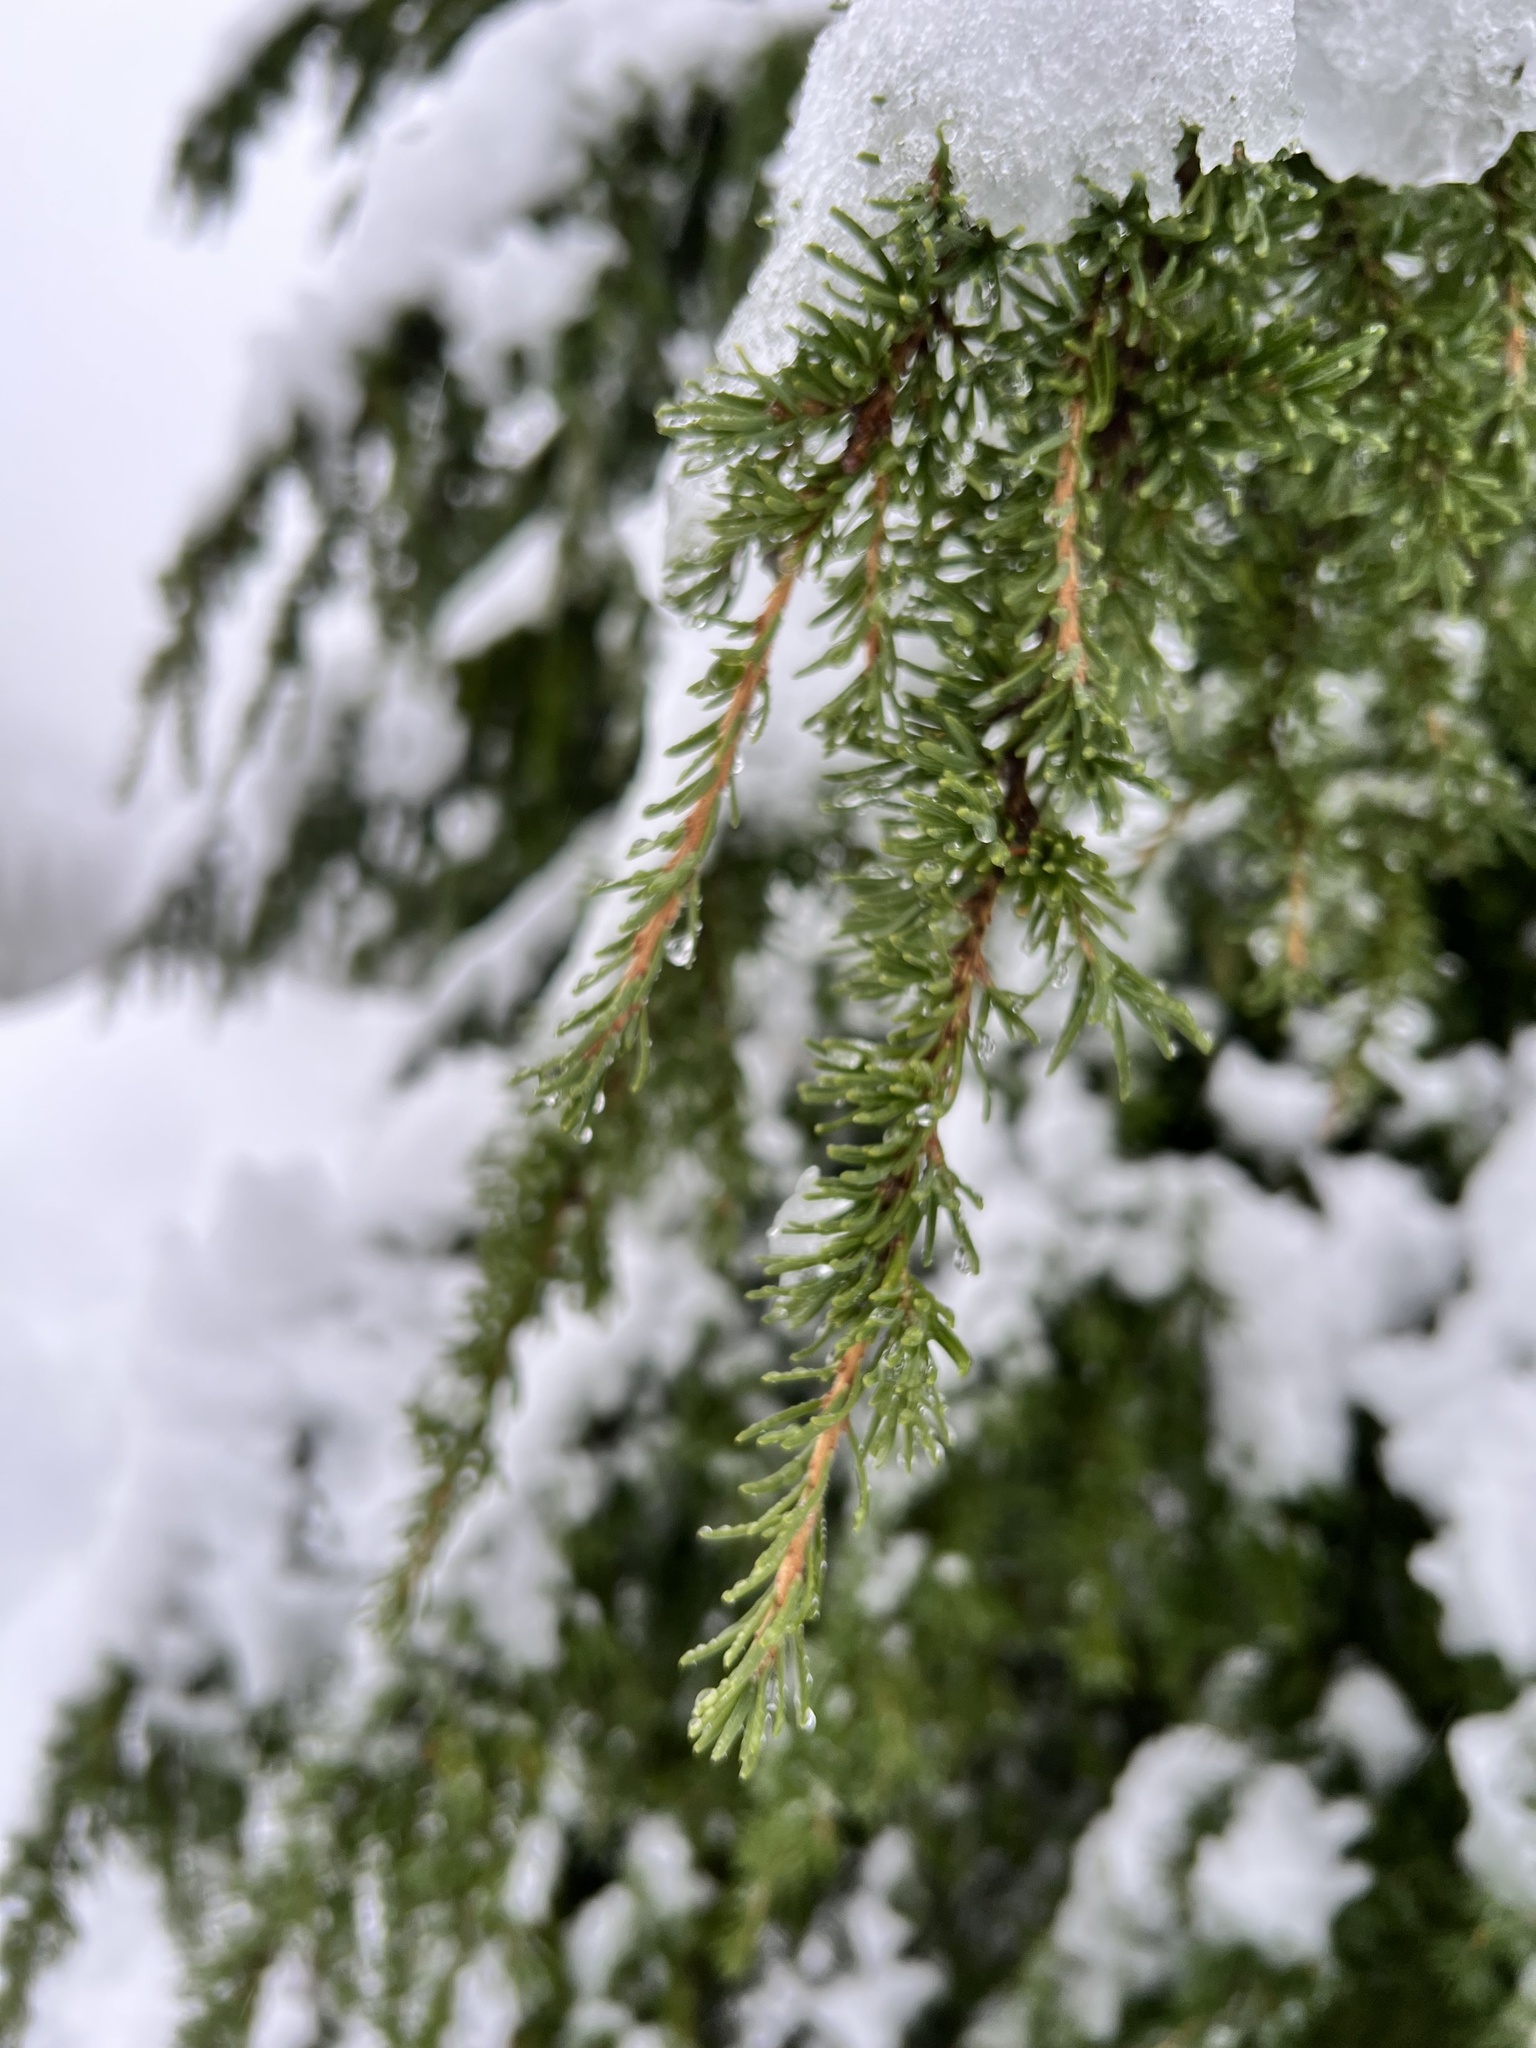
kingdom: Plantae
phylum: Tracheophyta
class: Pinopsida
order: Pinales
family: Pinaceae
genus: Tsuga
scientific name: Tsuga mertensiana
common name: Mountain hemlock
